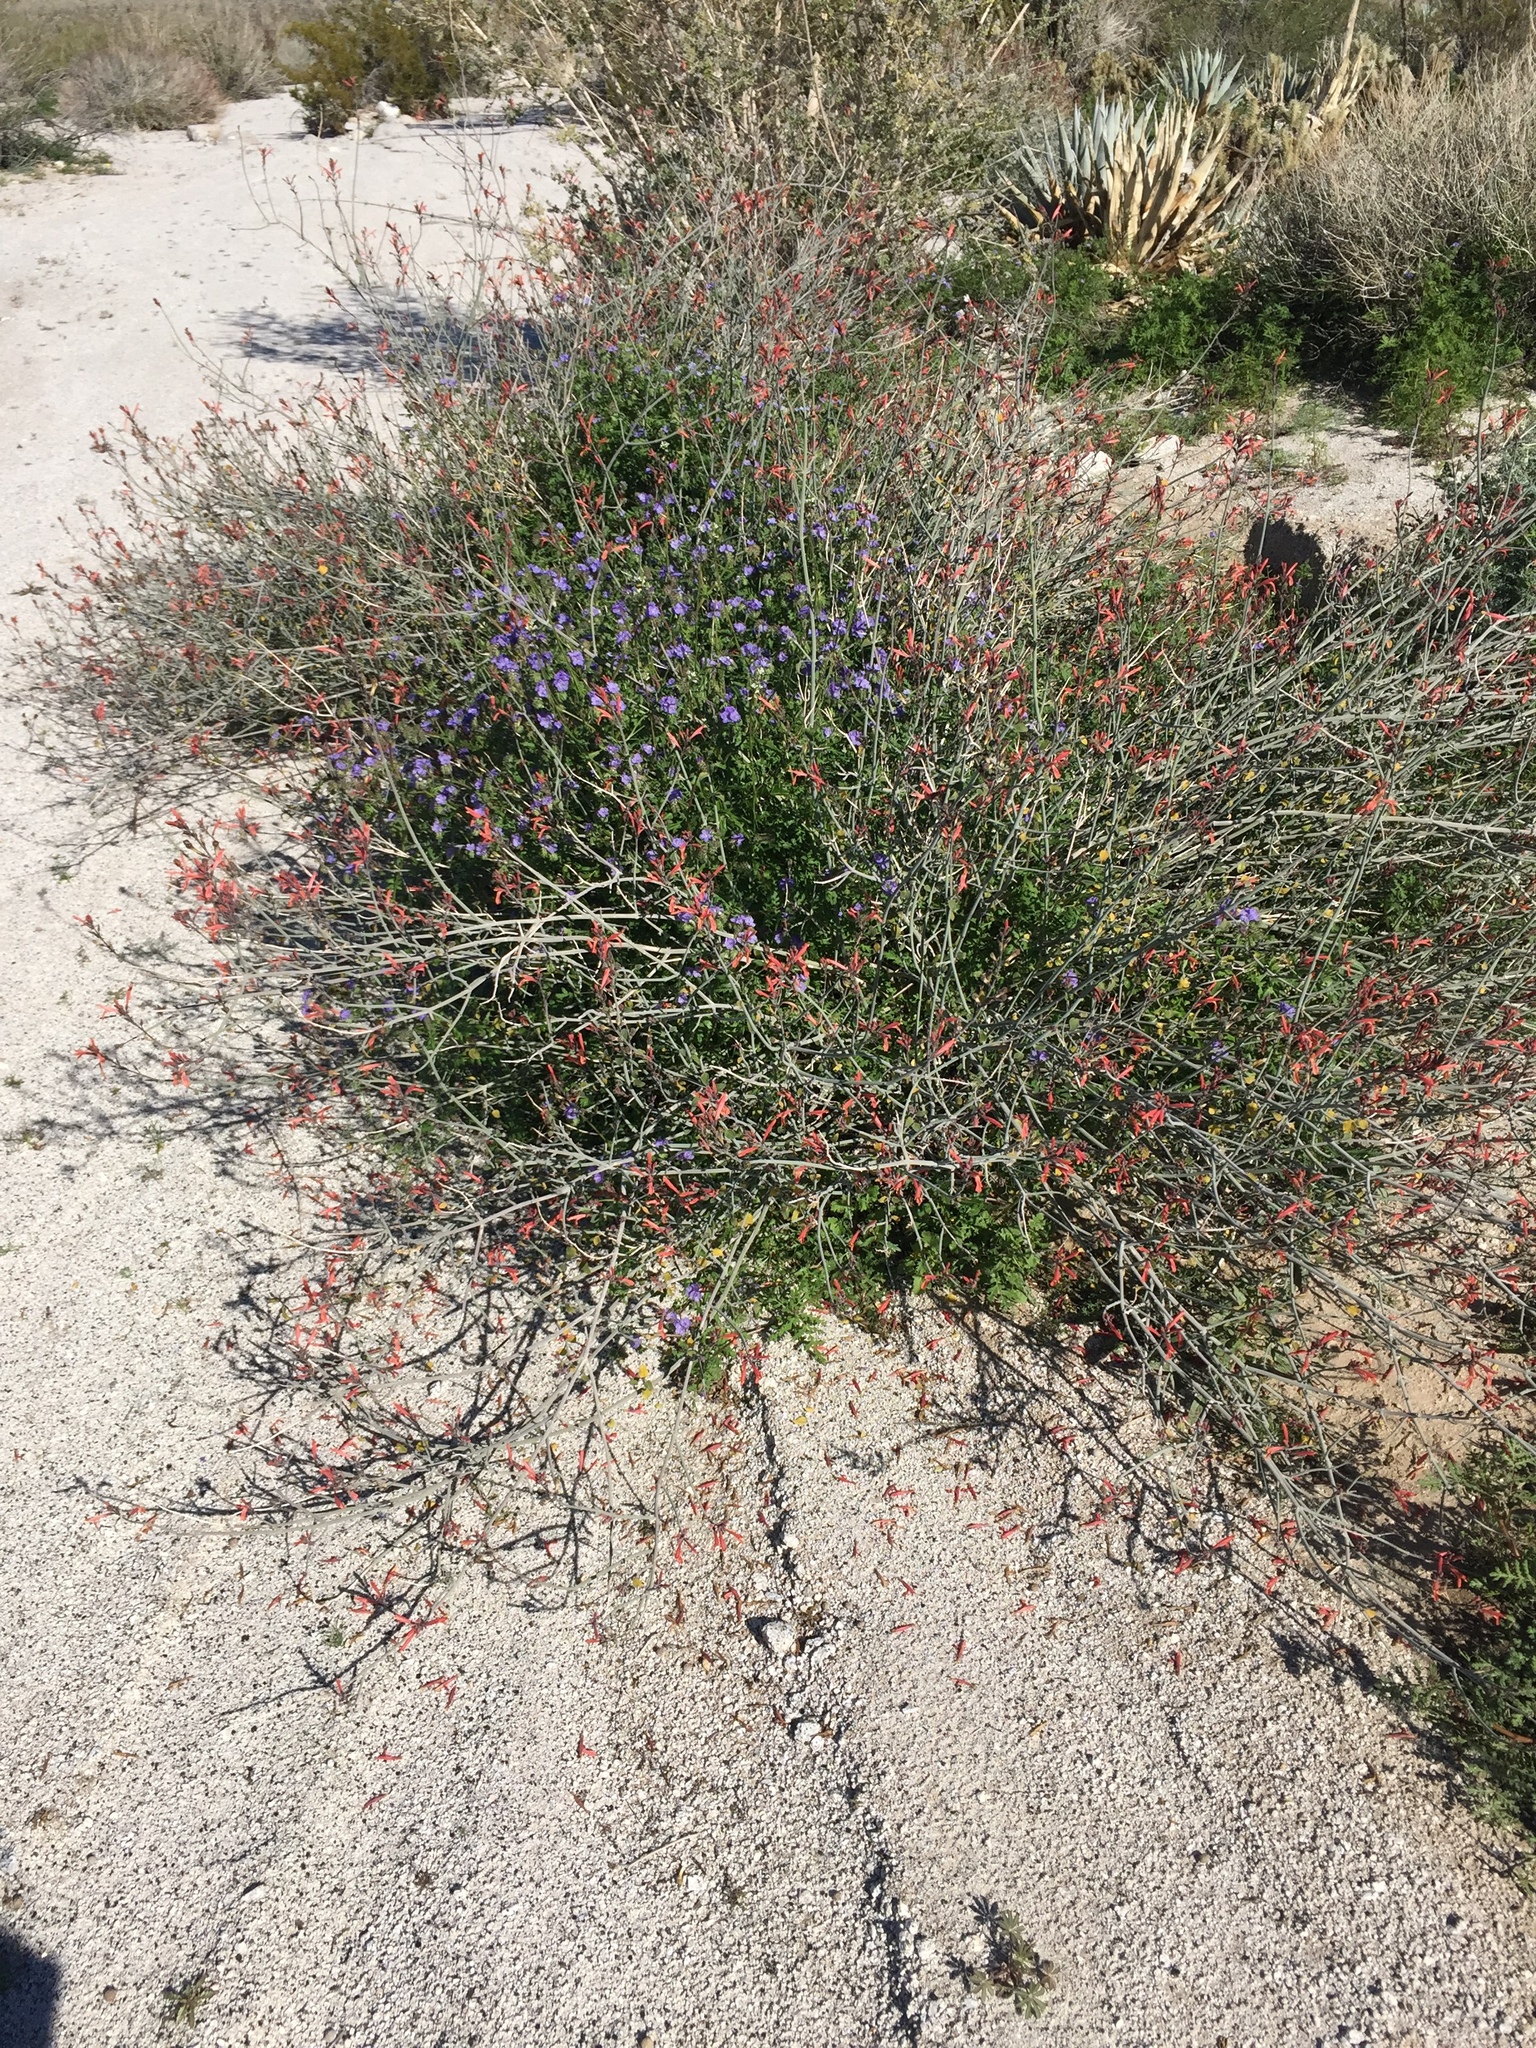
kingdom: Plantae
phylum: Tracheophyta
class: Magnoliopsida
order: Boraginales
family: Hydrophyllaceae
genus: Phacelia
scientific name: Phacelia distans
